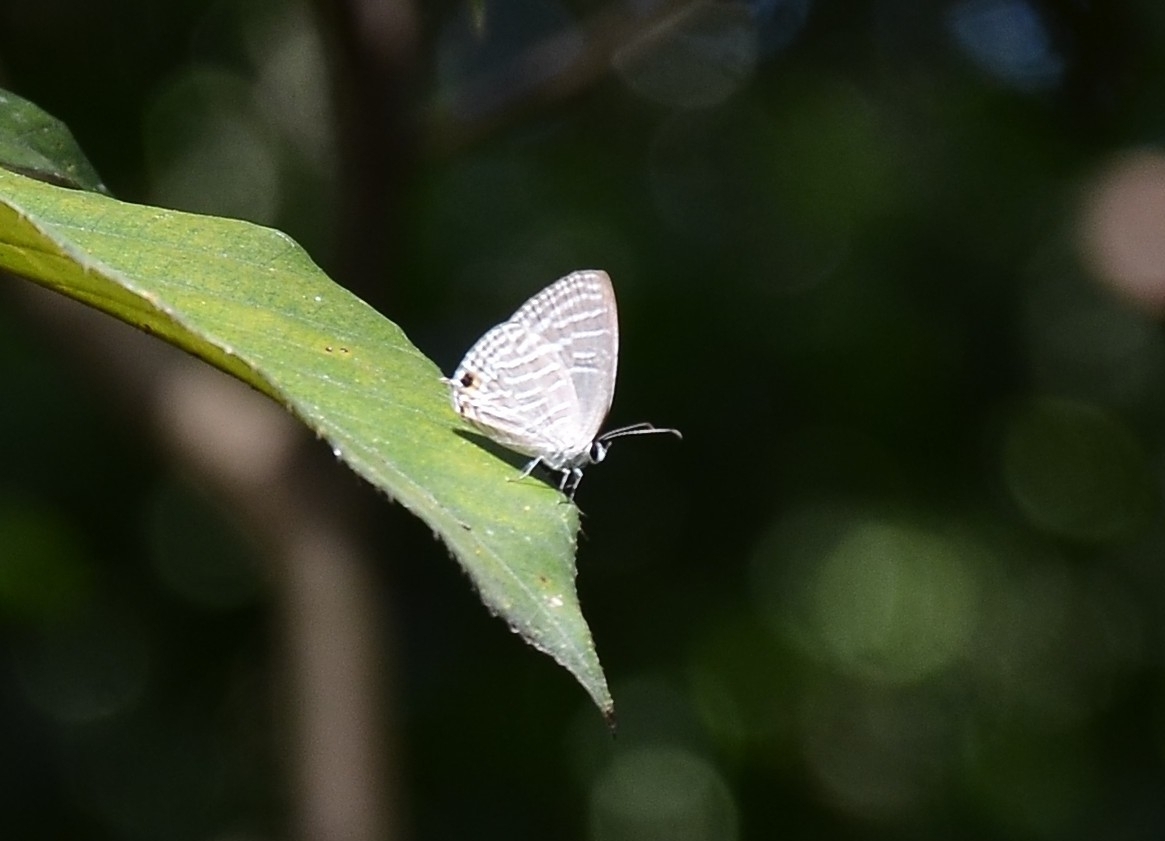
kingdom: Animalia
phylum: Arthropoda
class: Insecta
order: Lepidoptera
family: Lycaenidae
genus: Jamides
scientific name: Jamides celeno
